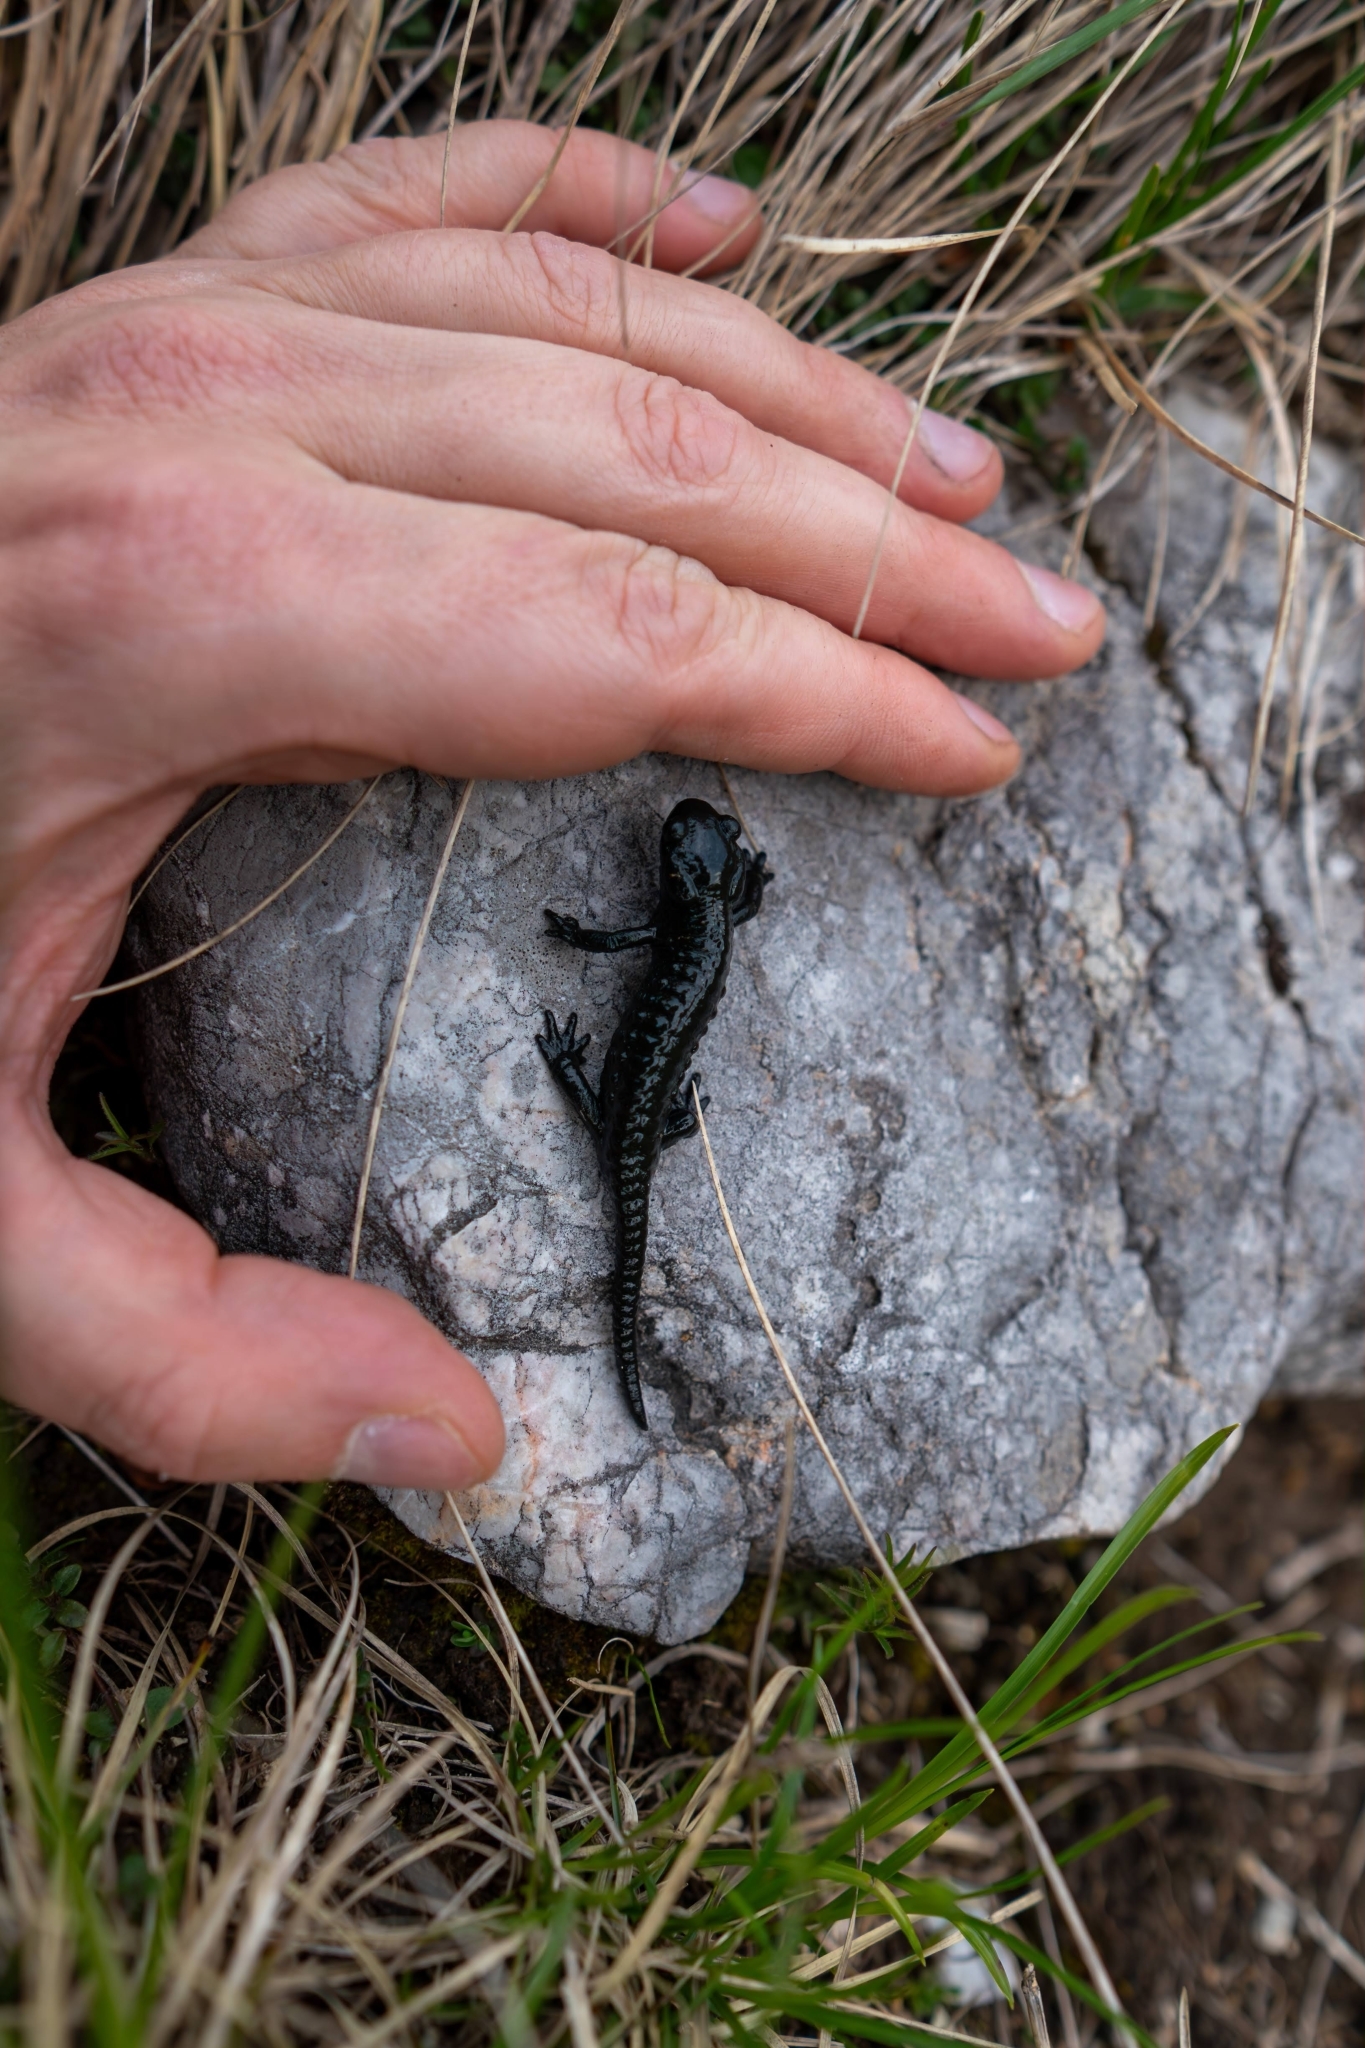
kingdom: Animalia
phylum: Chordata
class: Amphibia
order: Caudata
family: Salamandridae
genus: Salamandra
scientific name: Salamandra atra
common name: Alpine salamander
